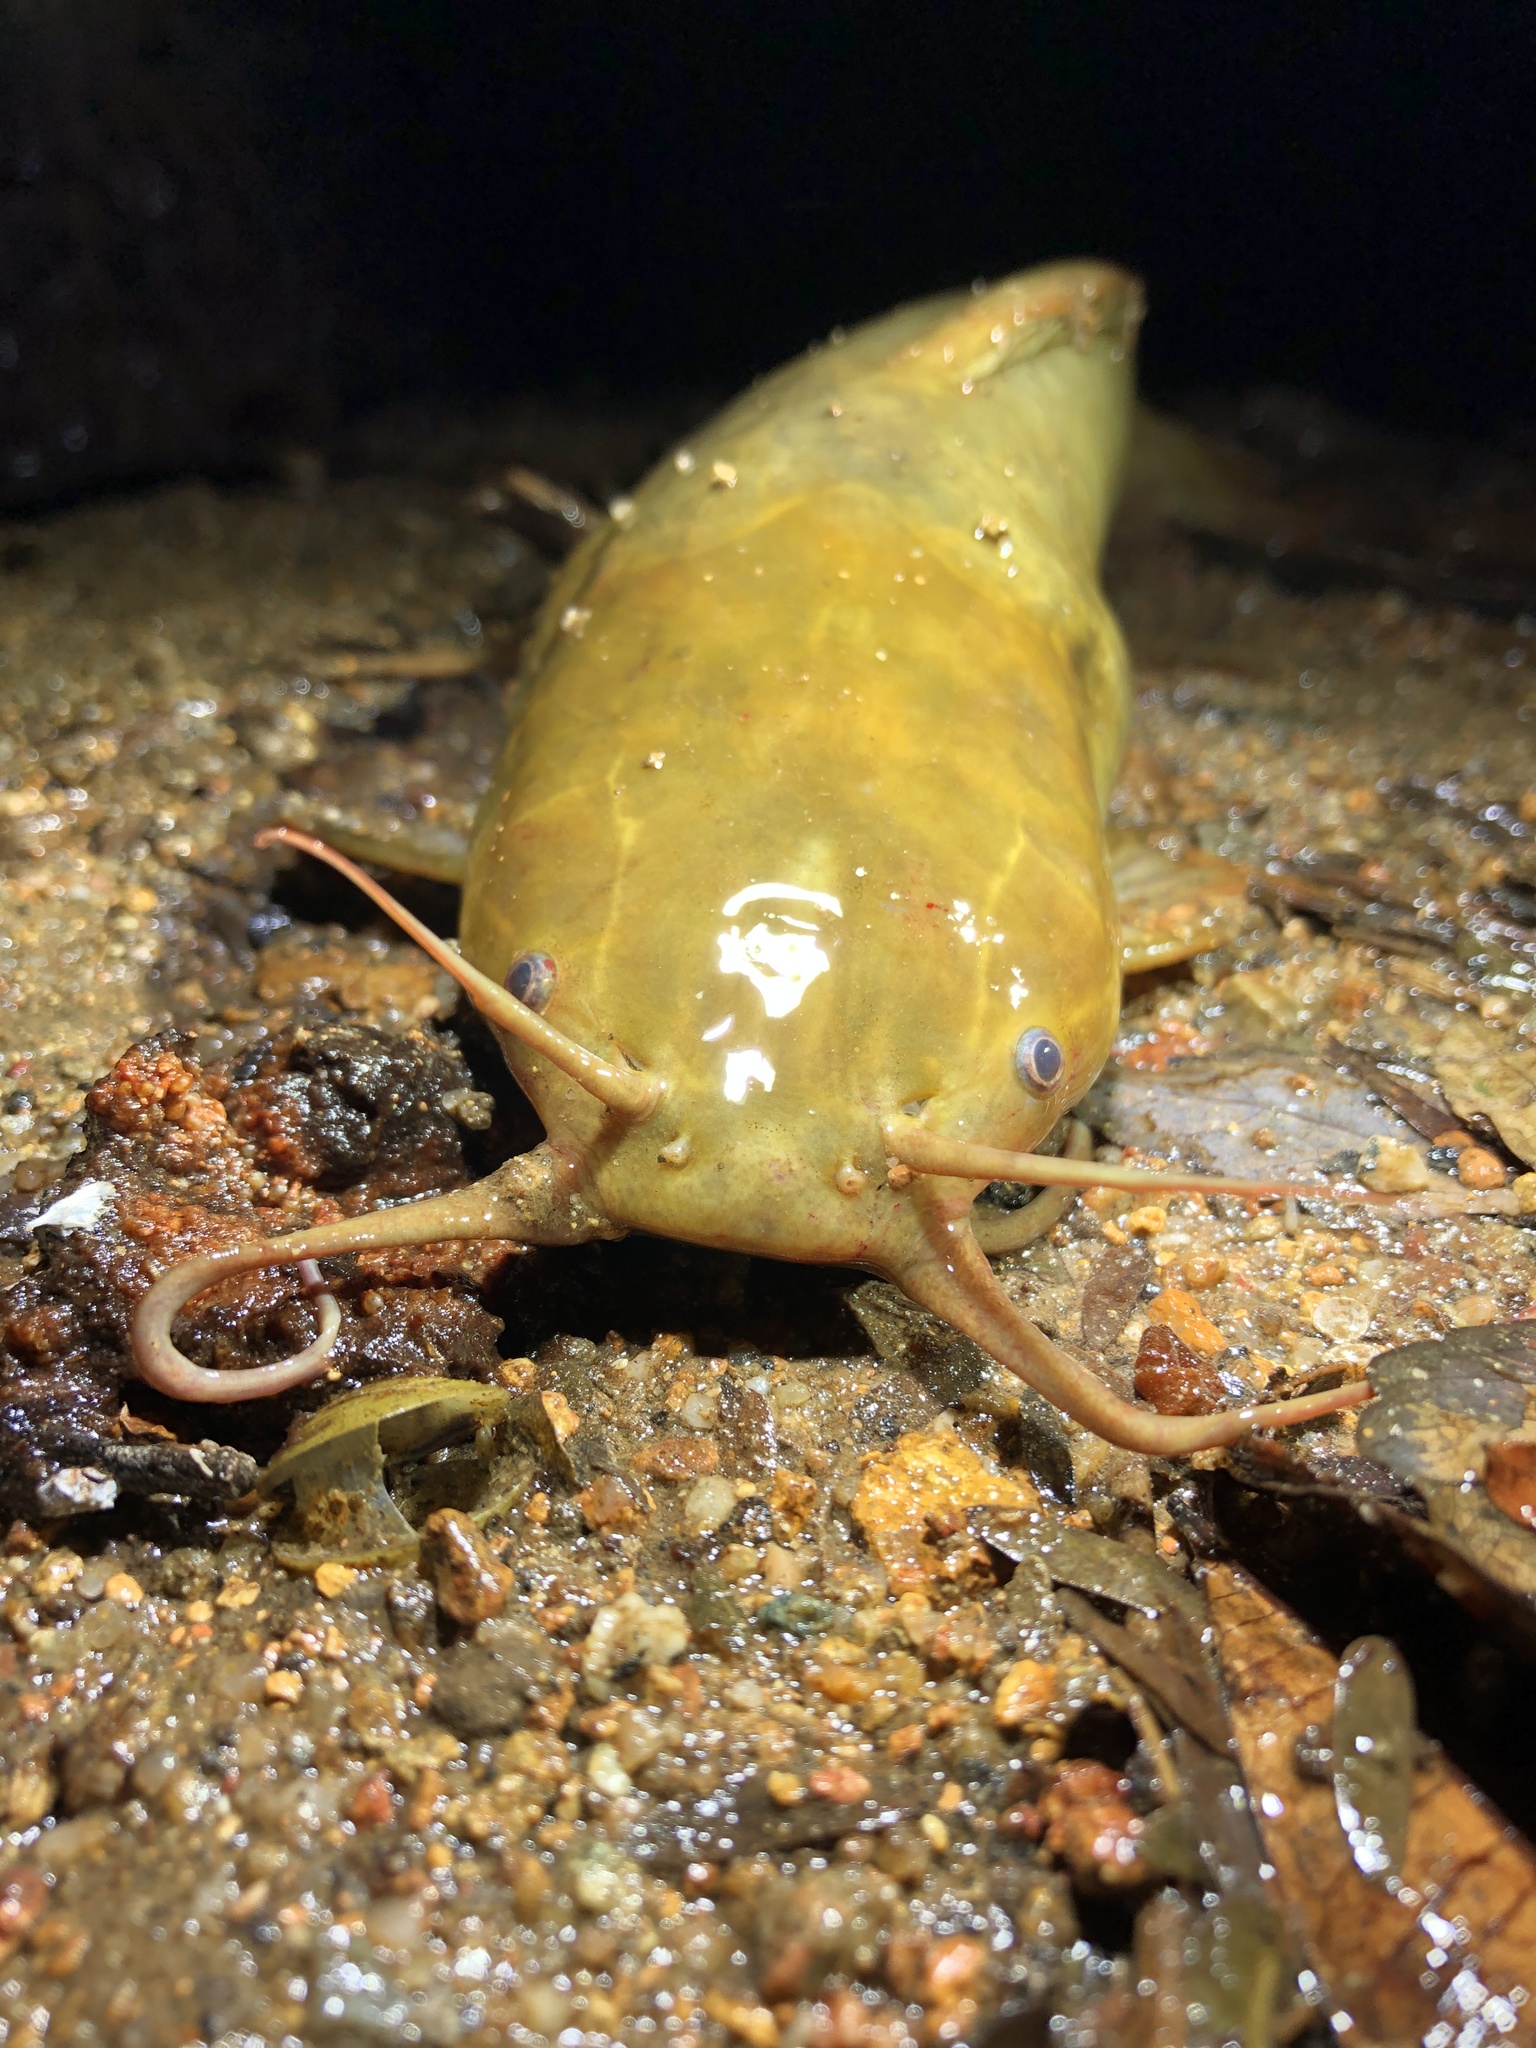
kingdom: Animalia
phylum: Chordata
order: Siluriformes
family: Clariidae
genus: Clarias
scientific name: Clarias fuscus
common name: Chinese catfish
